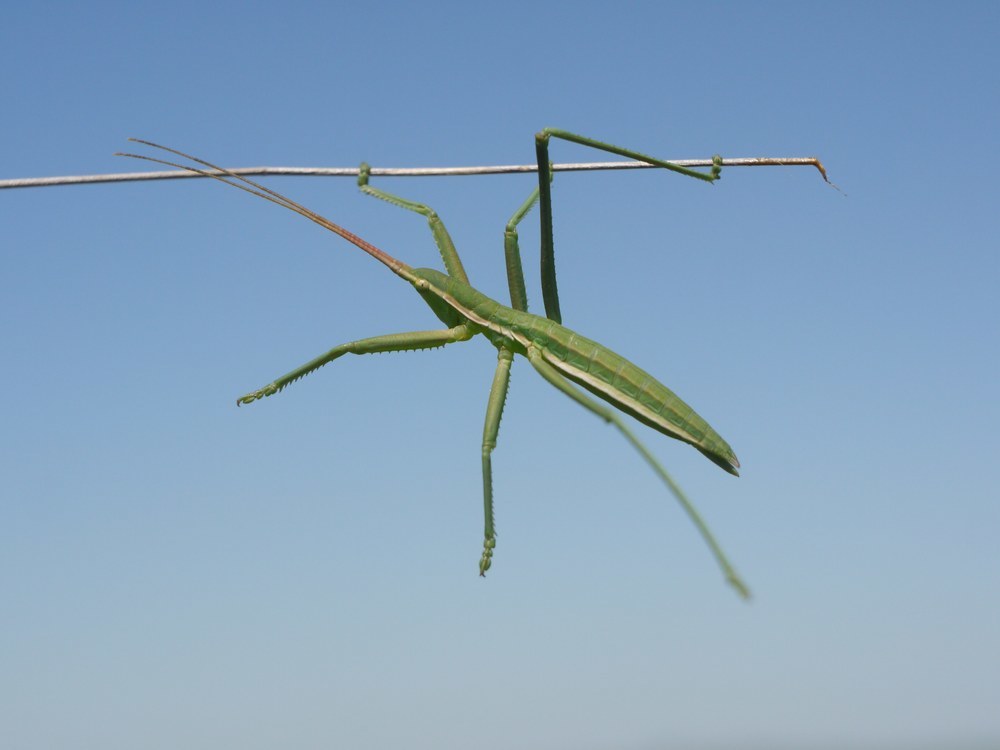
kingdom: Animalia
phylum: Arthropoda
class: Insecta
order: Orthoptera
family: Tettigoniidae
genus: Saga
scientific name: Saga pedo
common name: Common predatory bush-cricket
